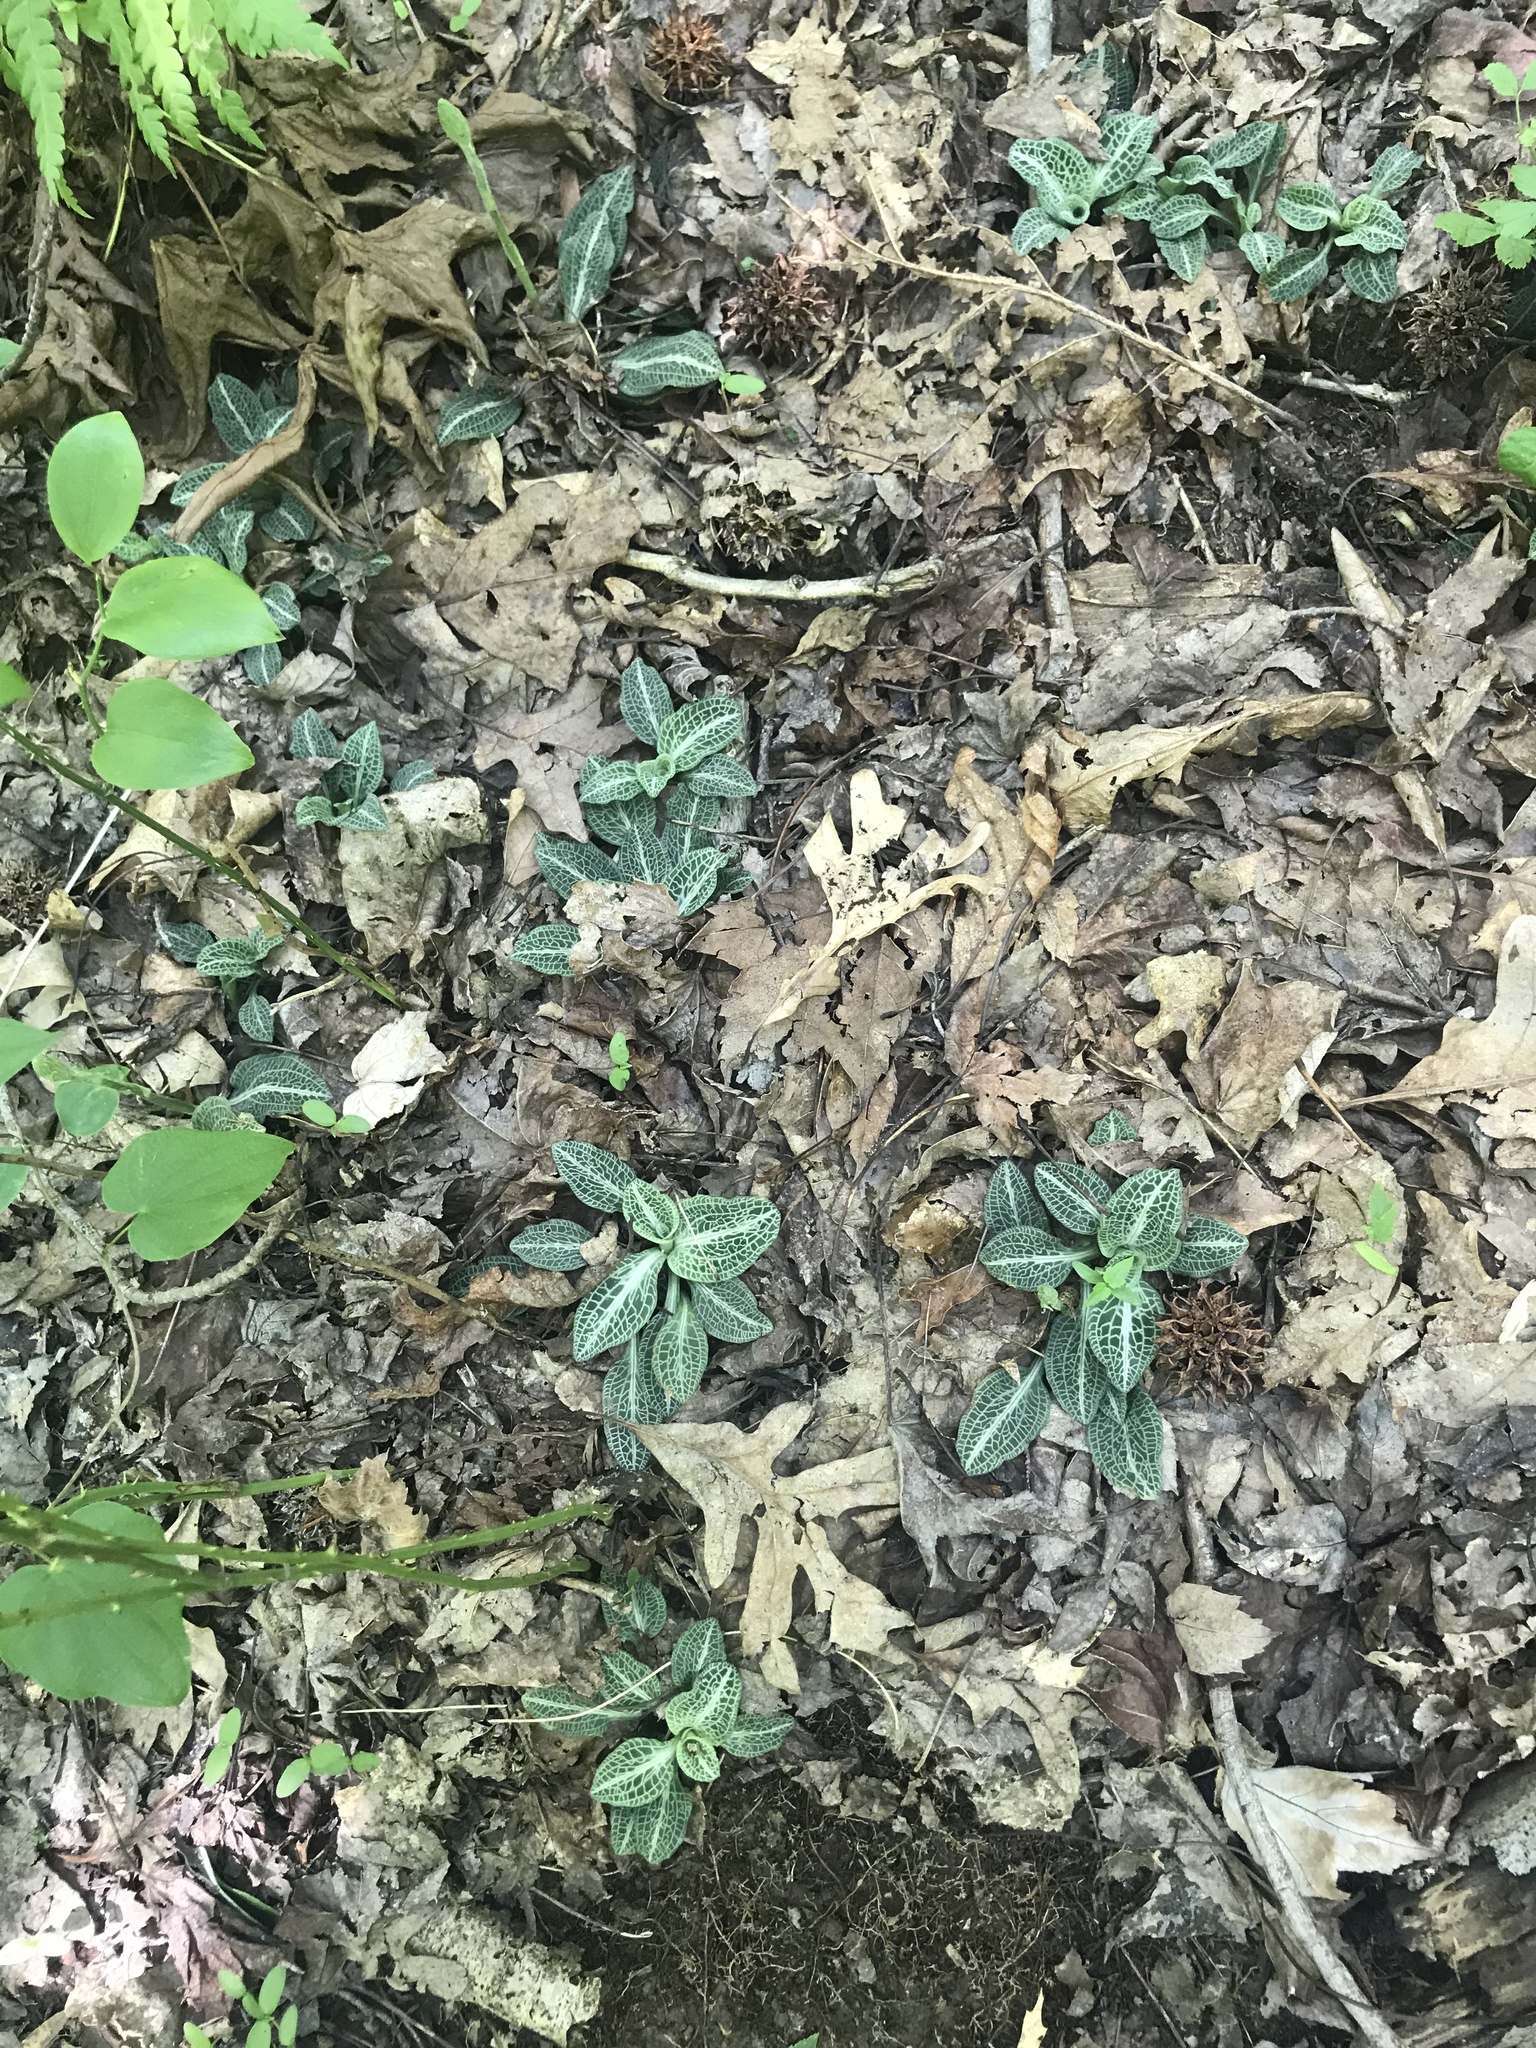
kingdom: Plantae
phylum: Tracheophyta
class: Liliopsida
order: Asparagales
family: Orchidaceae
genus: Goodyera
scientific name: Goodyera pubescens
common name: Downy rattlesnake-plantain
